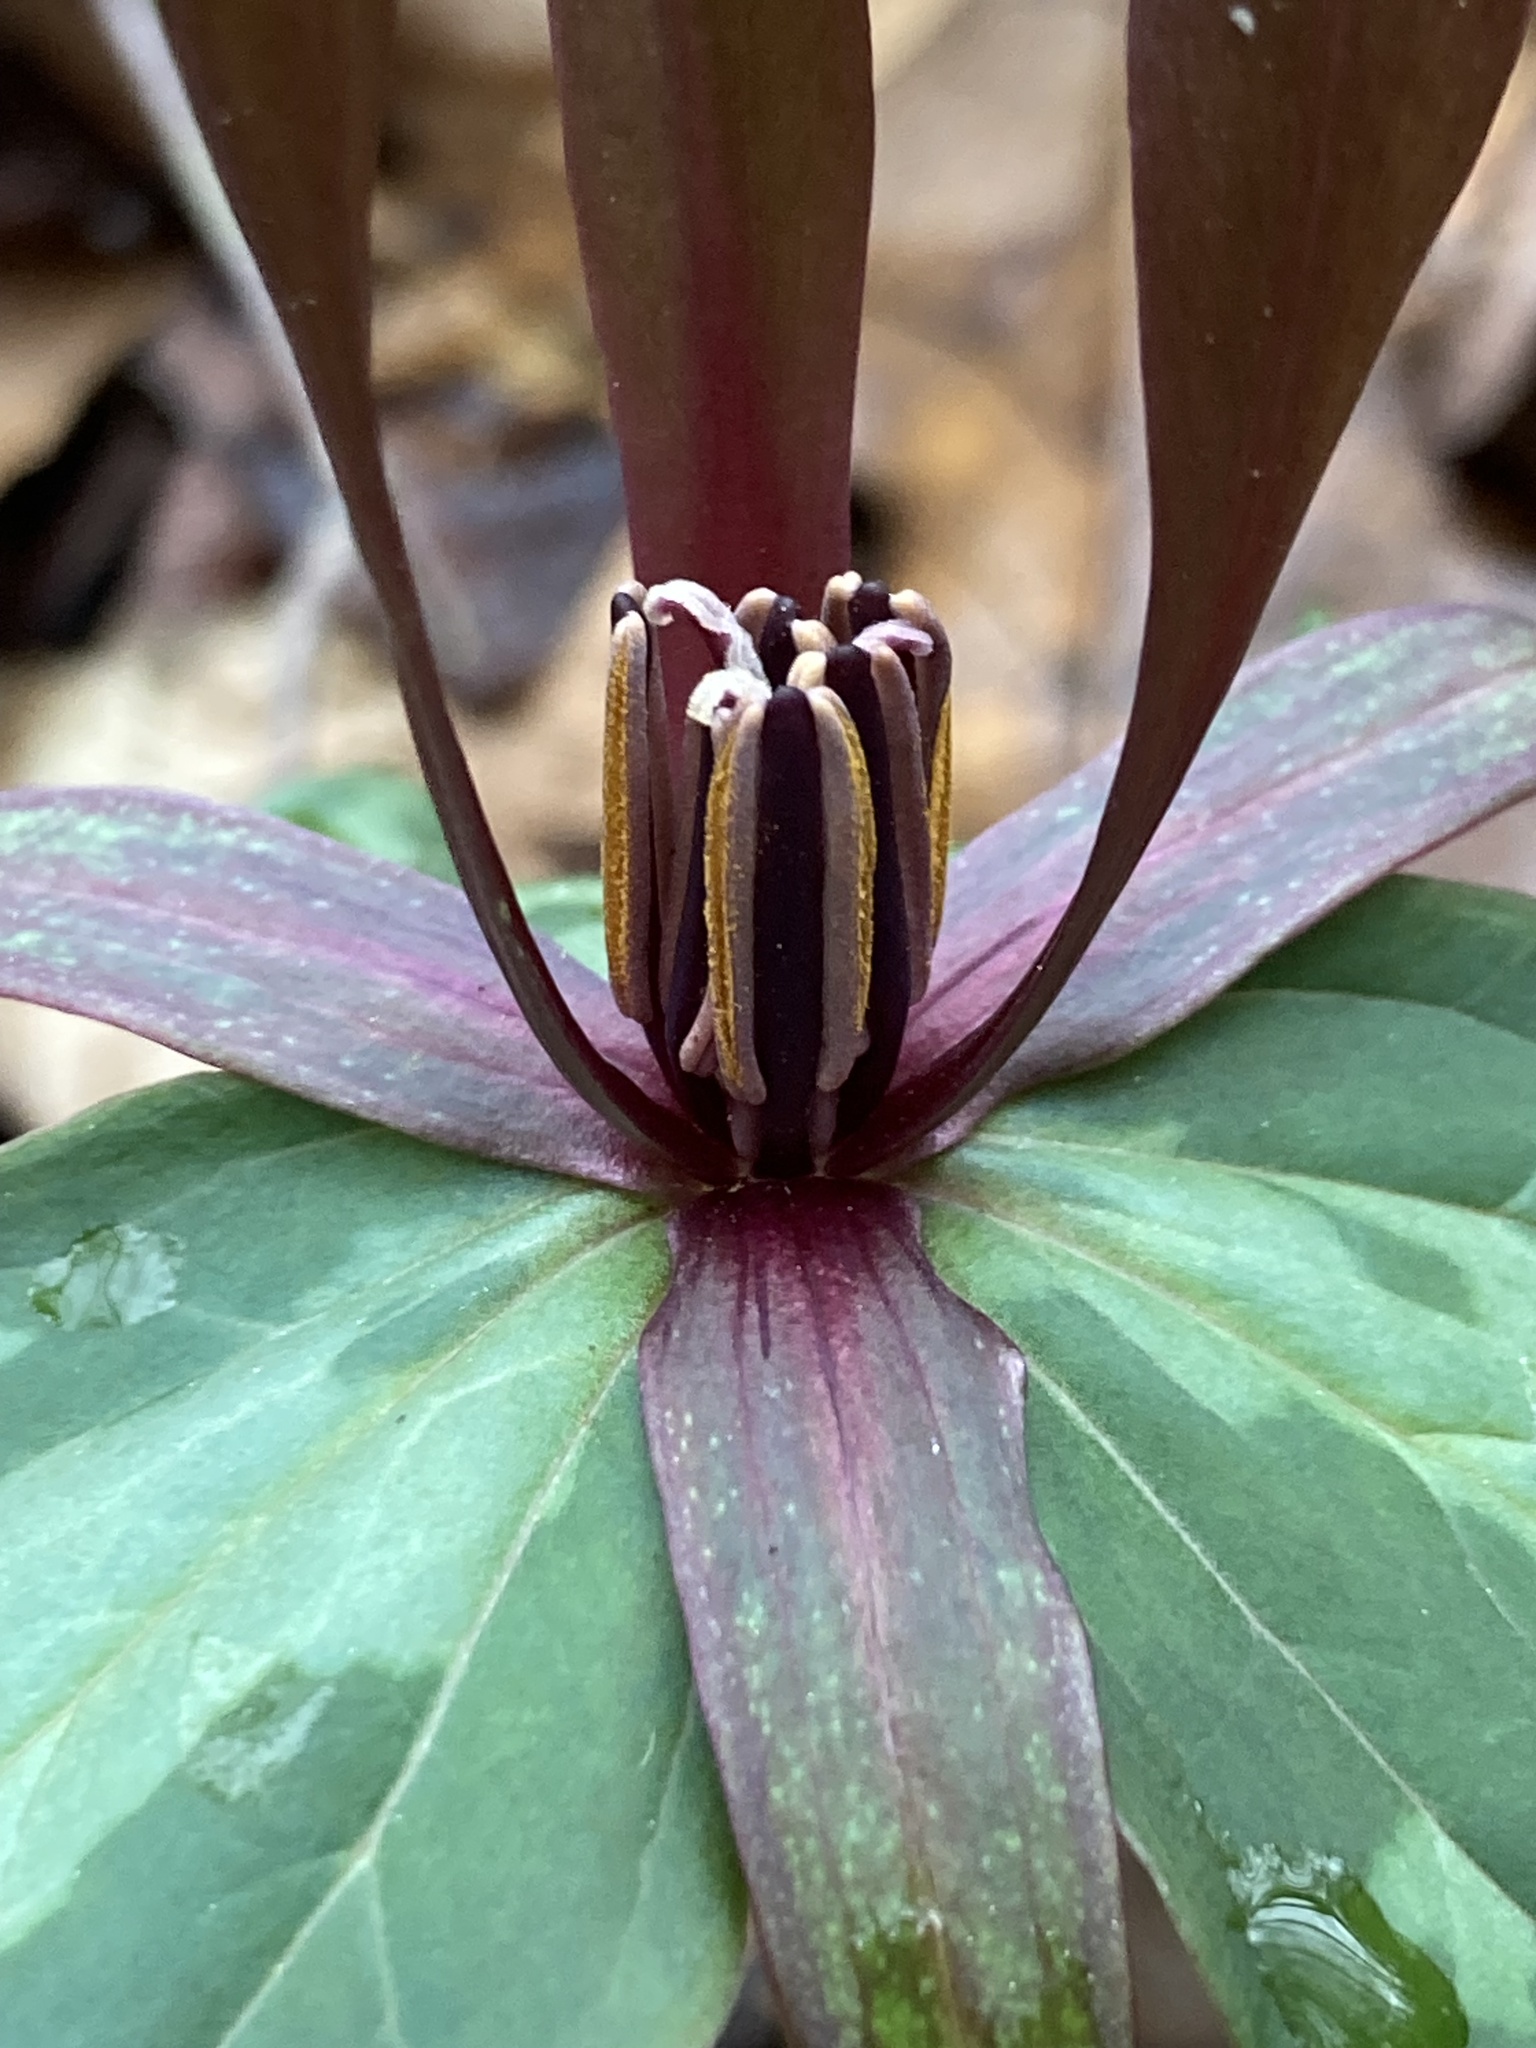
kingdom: Plantae
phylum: Tracheophyta
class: Liliopsida
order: Liliales
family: Melanthiaceae
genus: Trillium
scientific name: Trillium cuneatum
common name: Cuneate trillium
